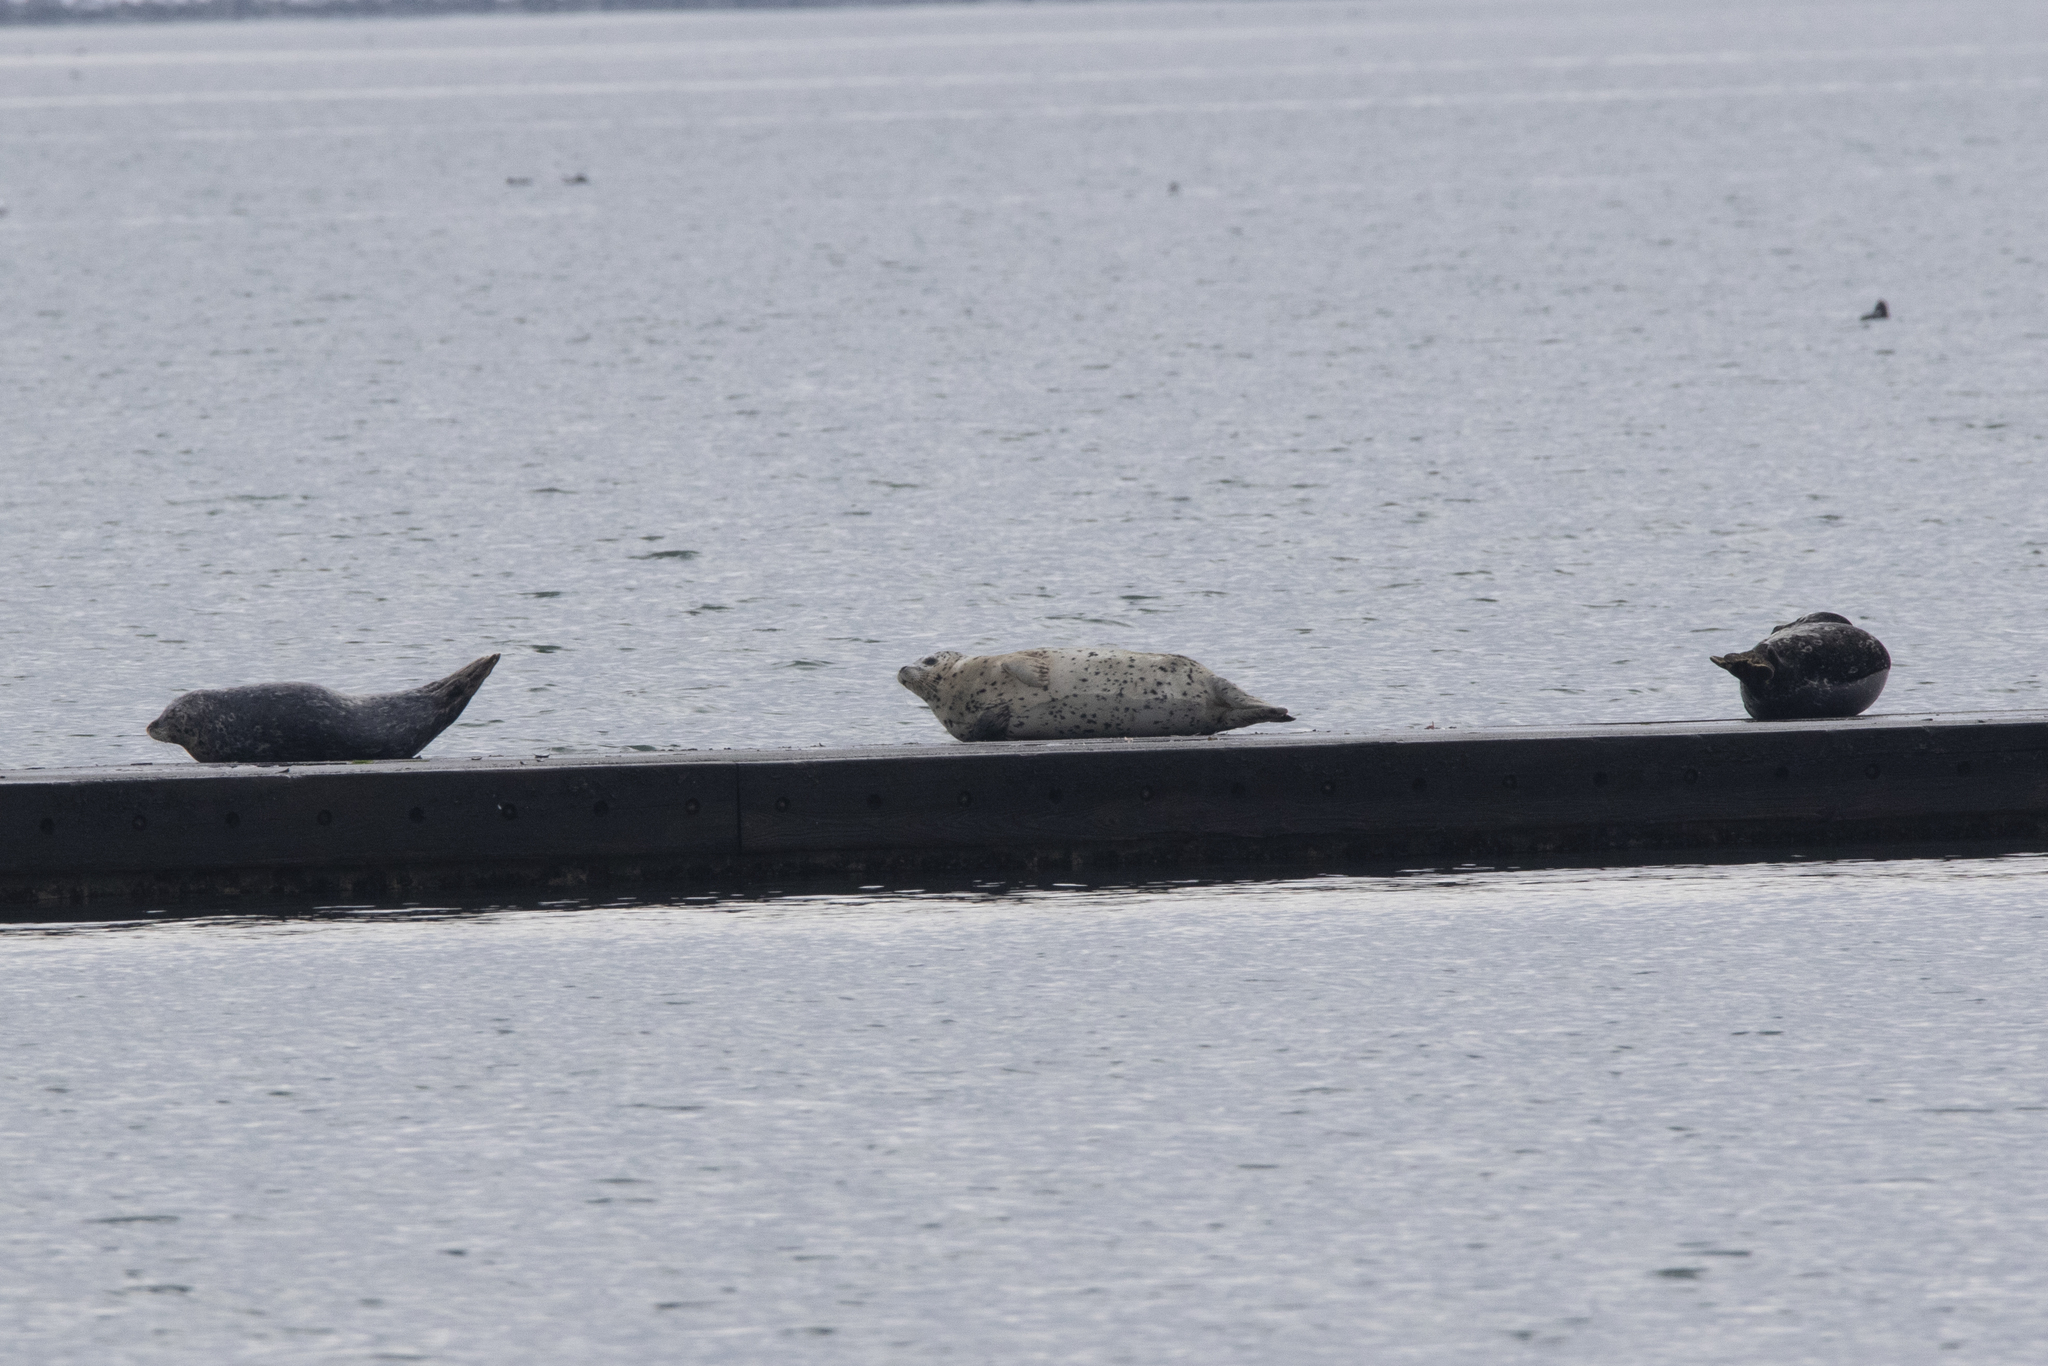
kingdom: Animalia
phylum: Chordata
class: Mammalia
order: Carnivora
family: Phocidae
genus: Phoca
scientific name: Phoca vitulina
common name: Harbor seal
